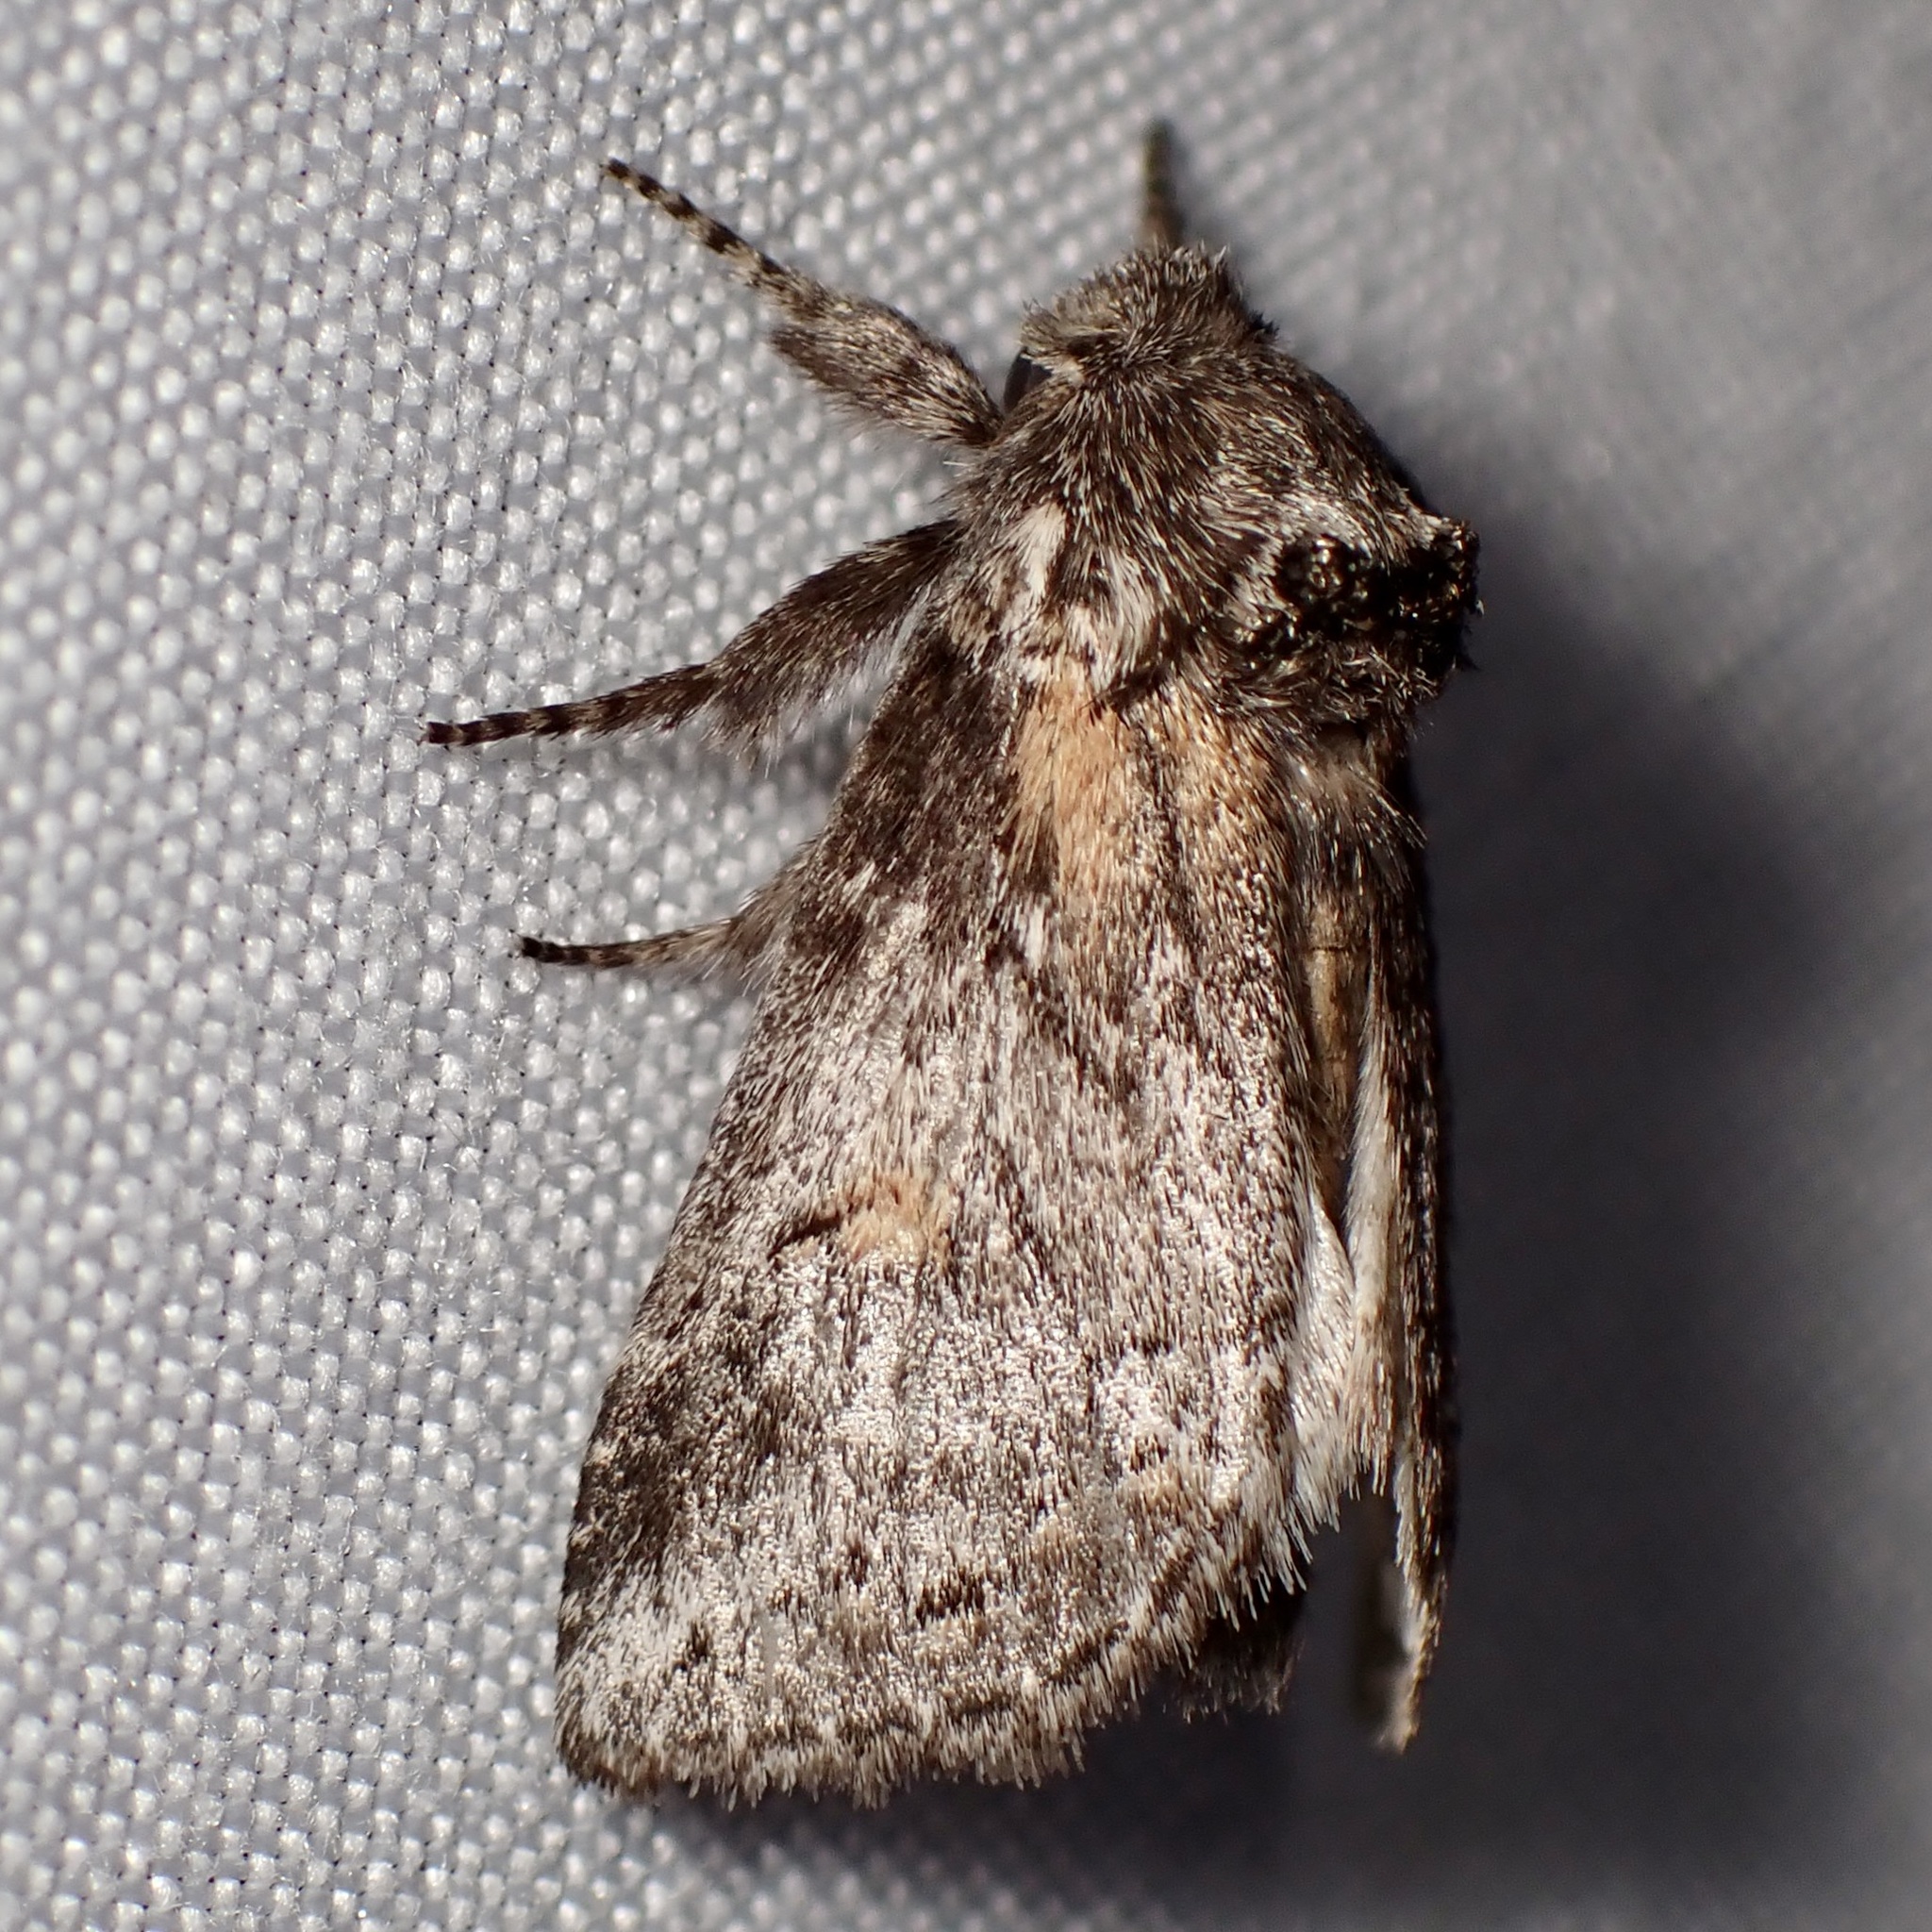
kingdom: Animalia
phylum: Arthropoda
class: Insecta
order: Lepidoptera
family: Notodontidae
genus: Kalkoma
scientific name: Kalkoma zapata
